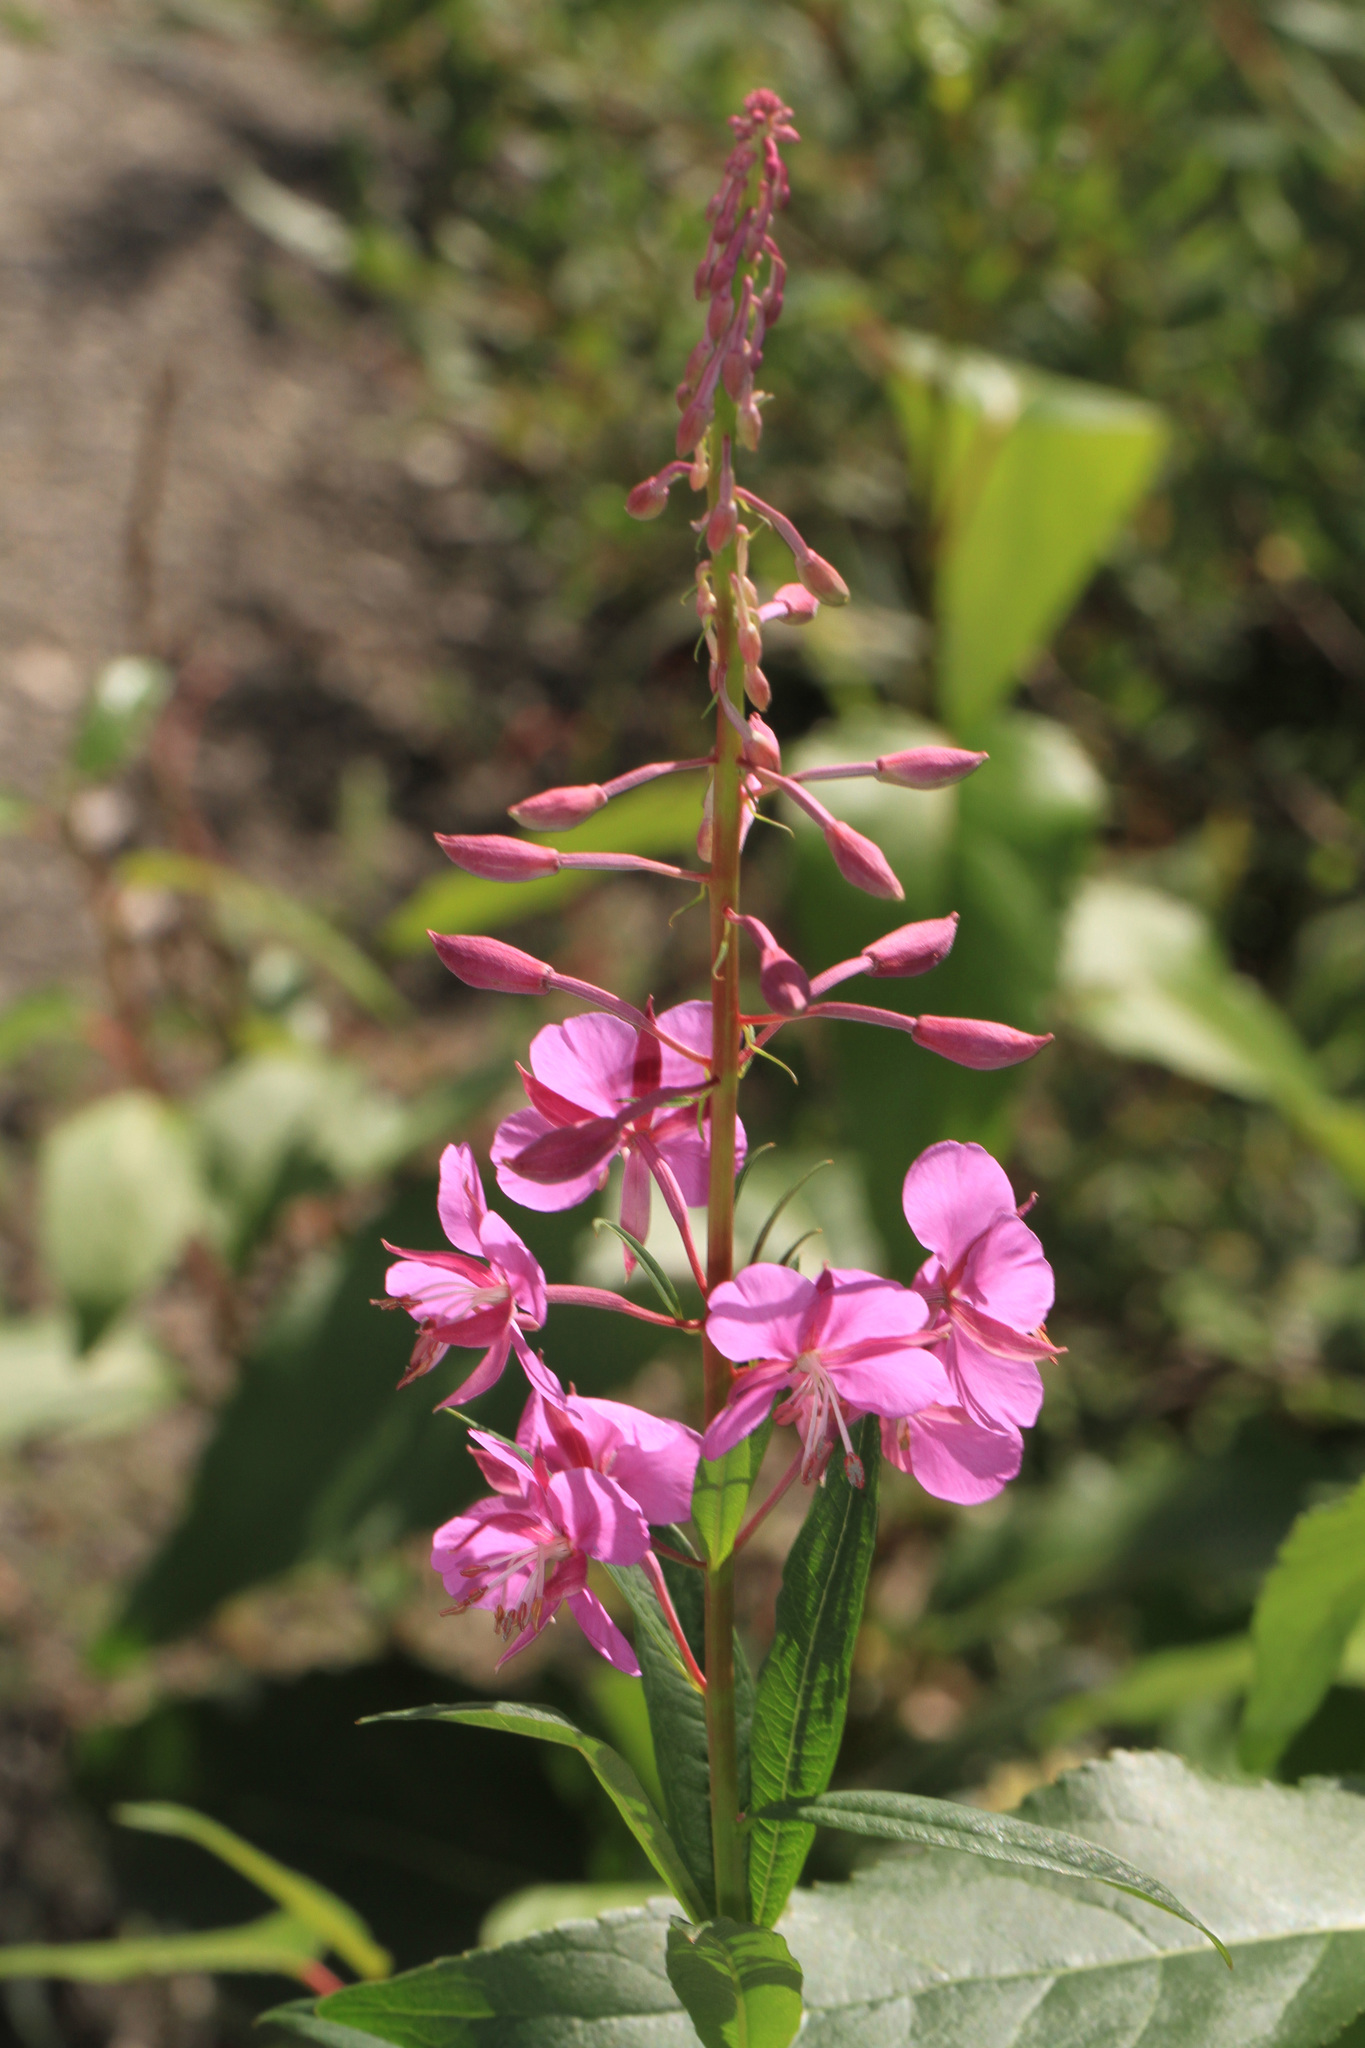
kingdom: Plantae
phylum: Tracheophyta
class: Magnoliopsida
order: Myrtales
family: Onagraceae
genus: Chamaenerion
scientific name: Chamaenerion angustifolium
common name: Fireweed
